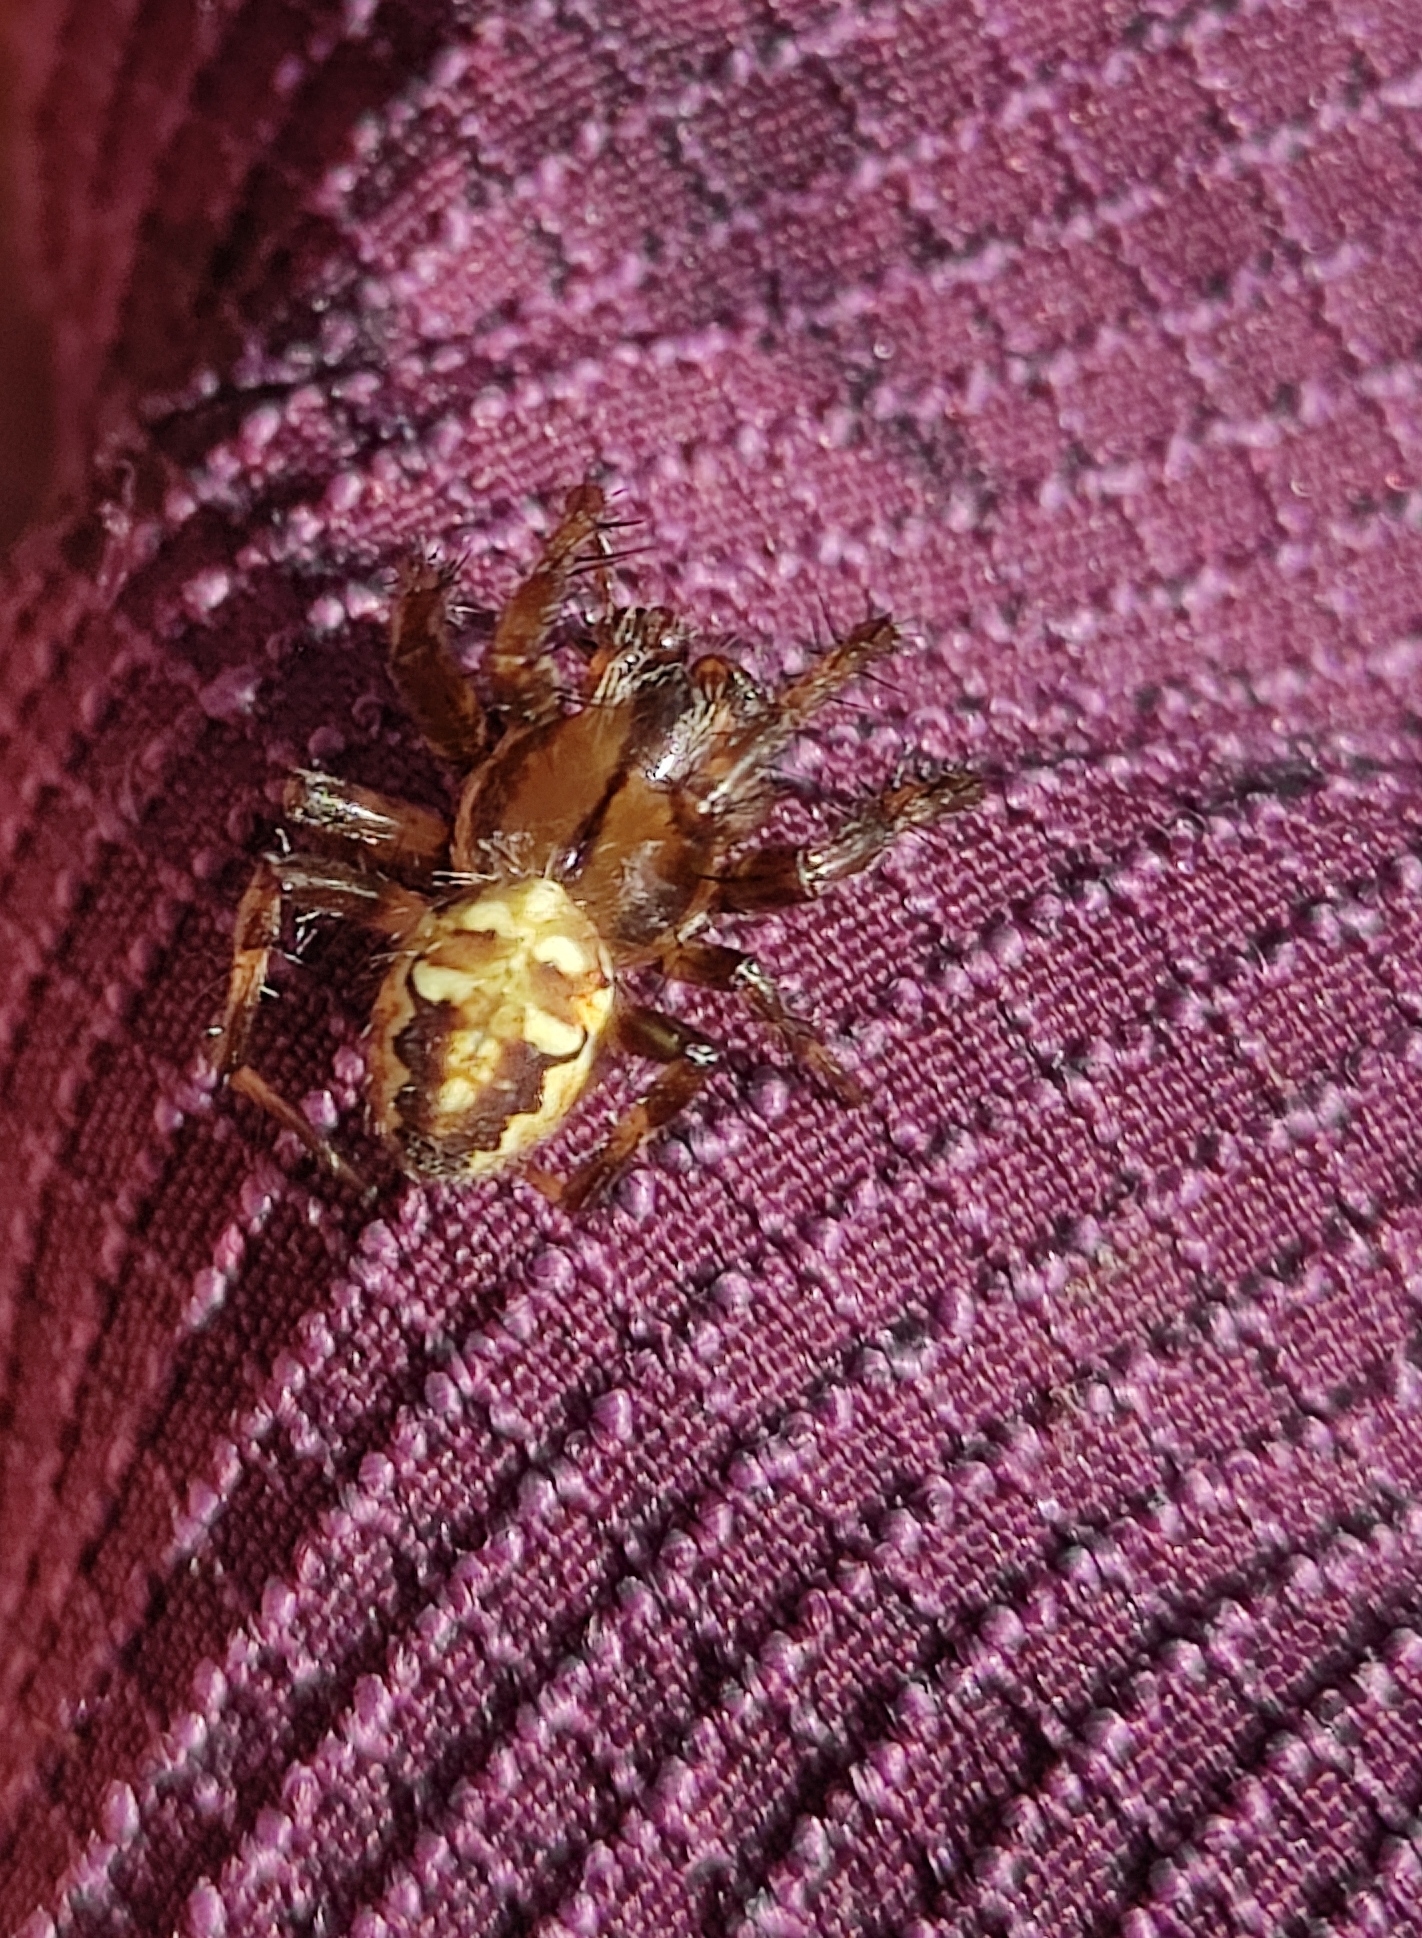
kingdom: Animalia
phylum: Arthropoda
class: Arachnida
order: Araneae
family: Araneidae
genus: Araneus
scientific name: Araneus quadratus
